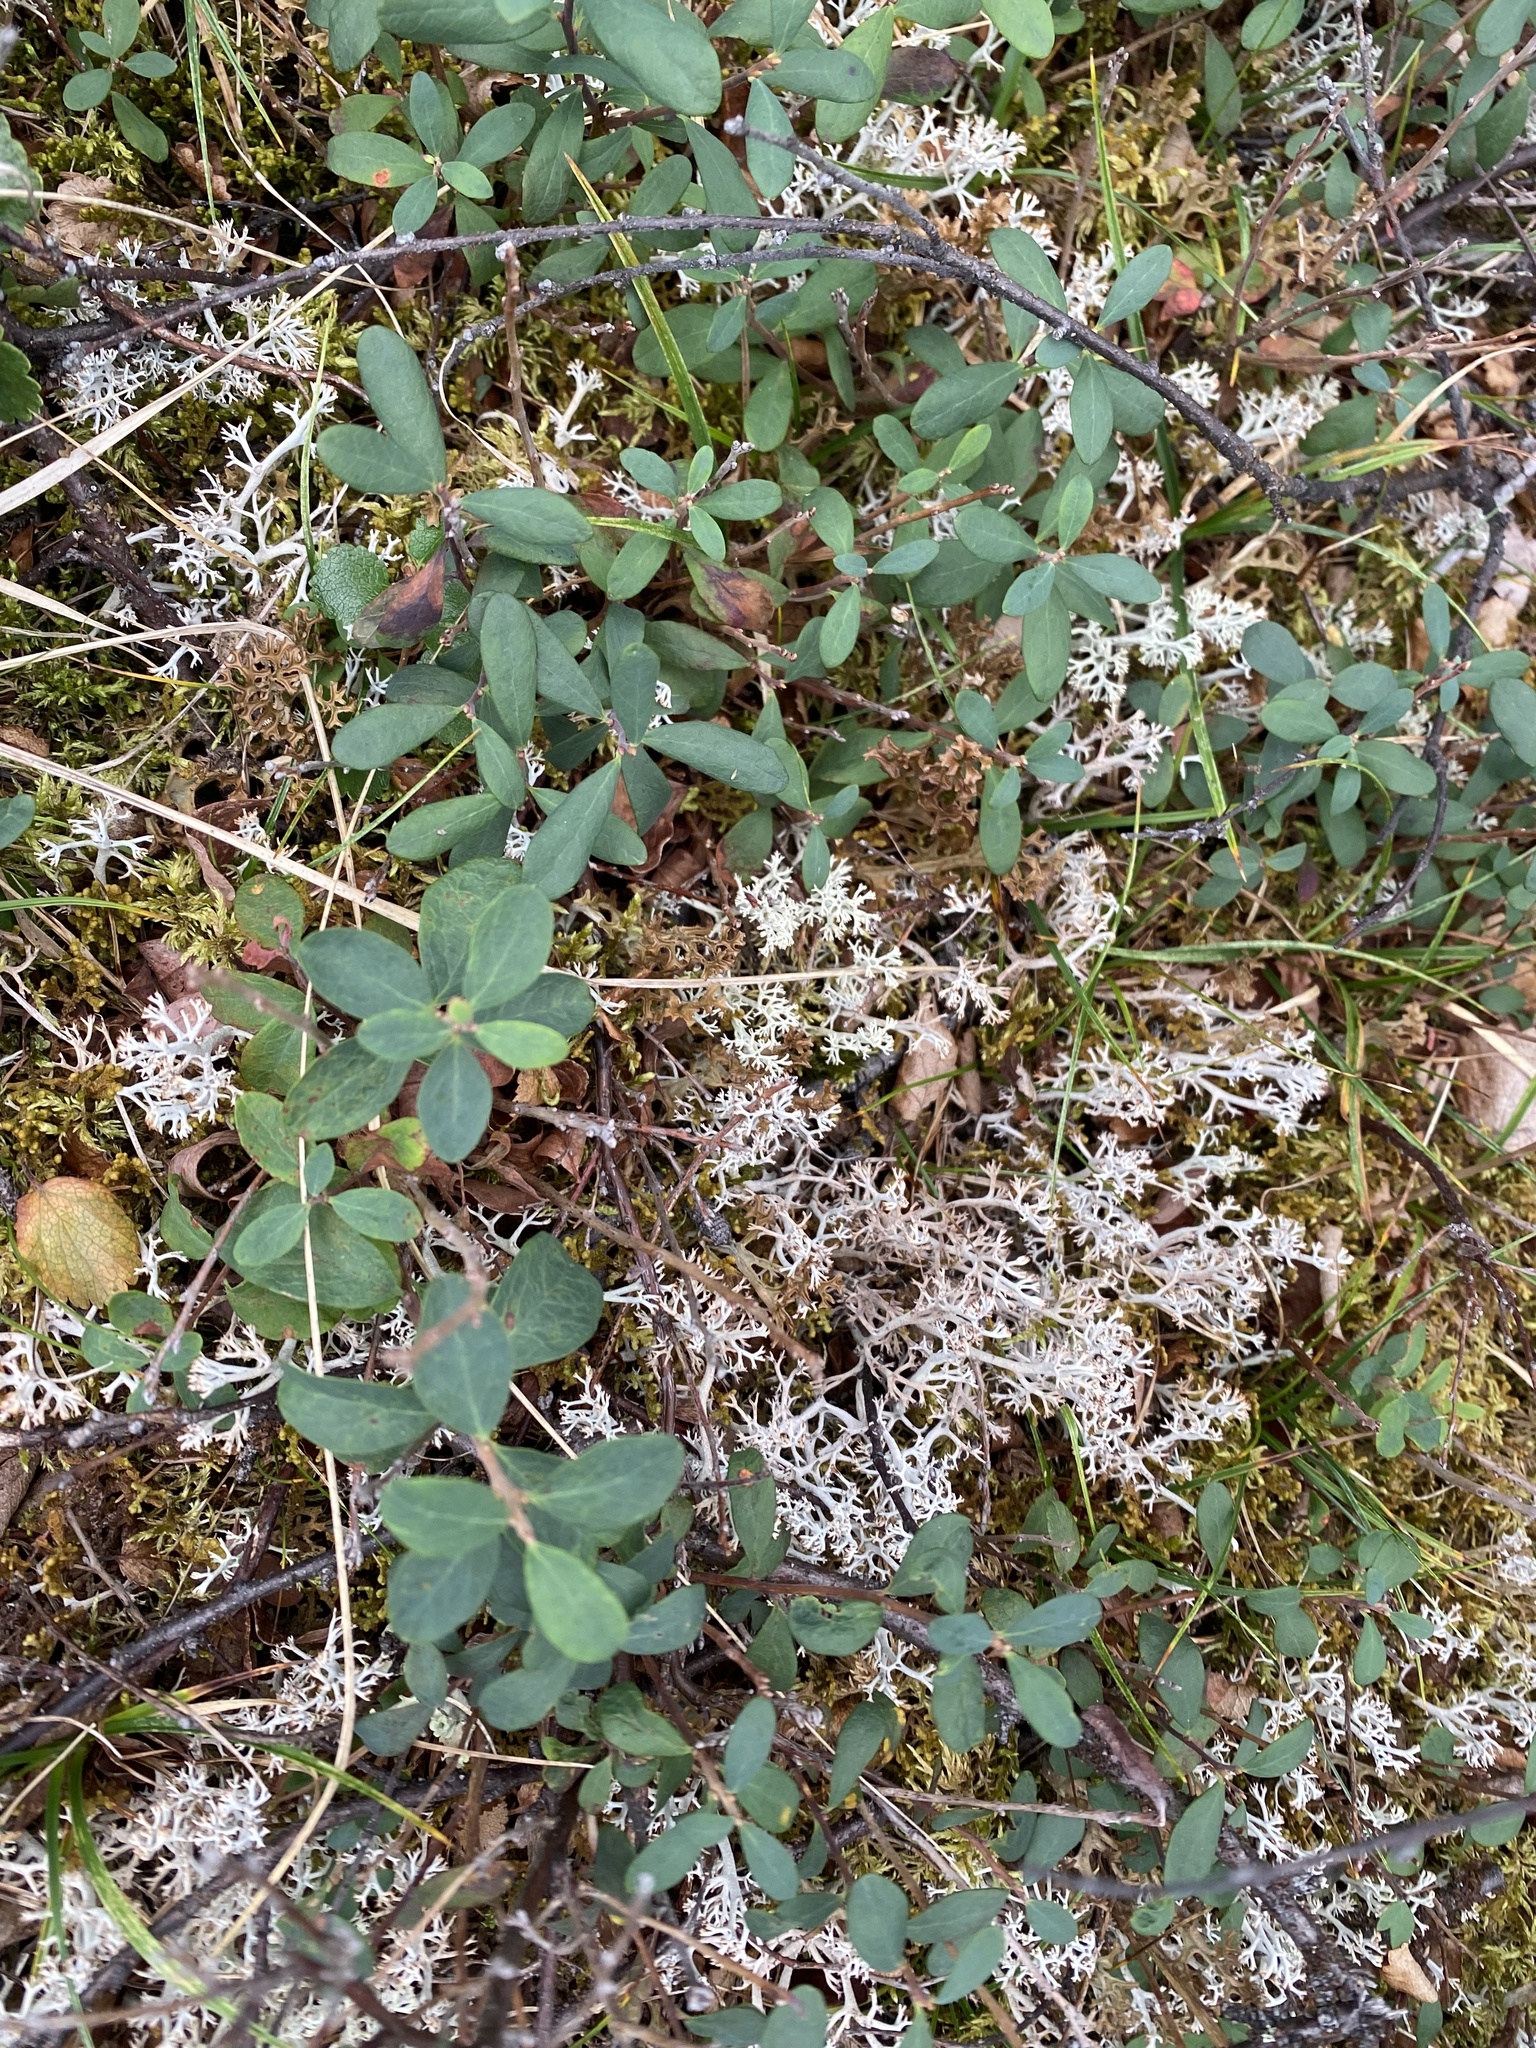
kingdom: Plantae
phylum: Tracheophyta
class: Magnoliopsida
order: Ericales
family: Ericaceae
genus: Vaccinium
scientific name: Vaccinium uliginosum
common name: Bog bilberry
